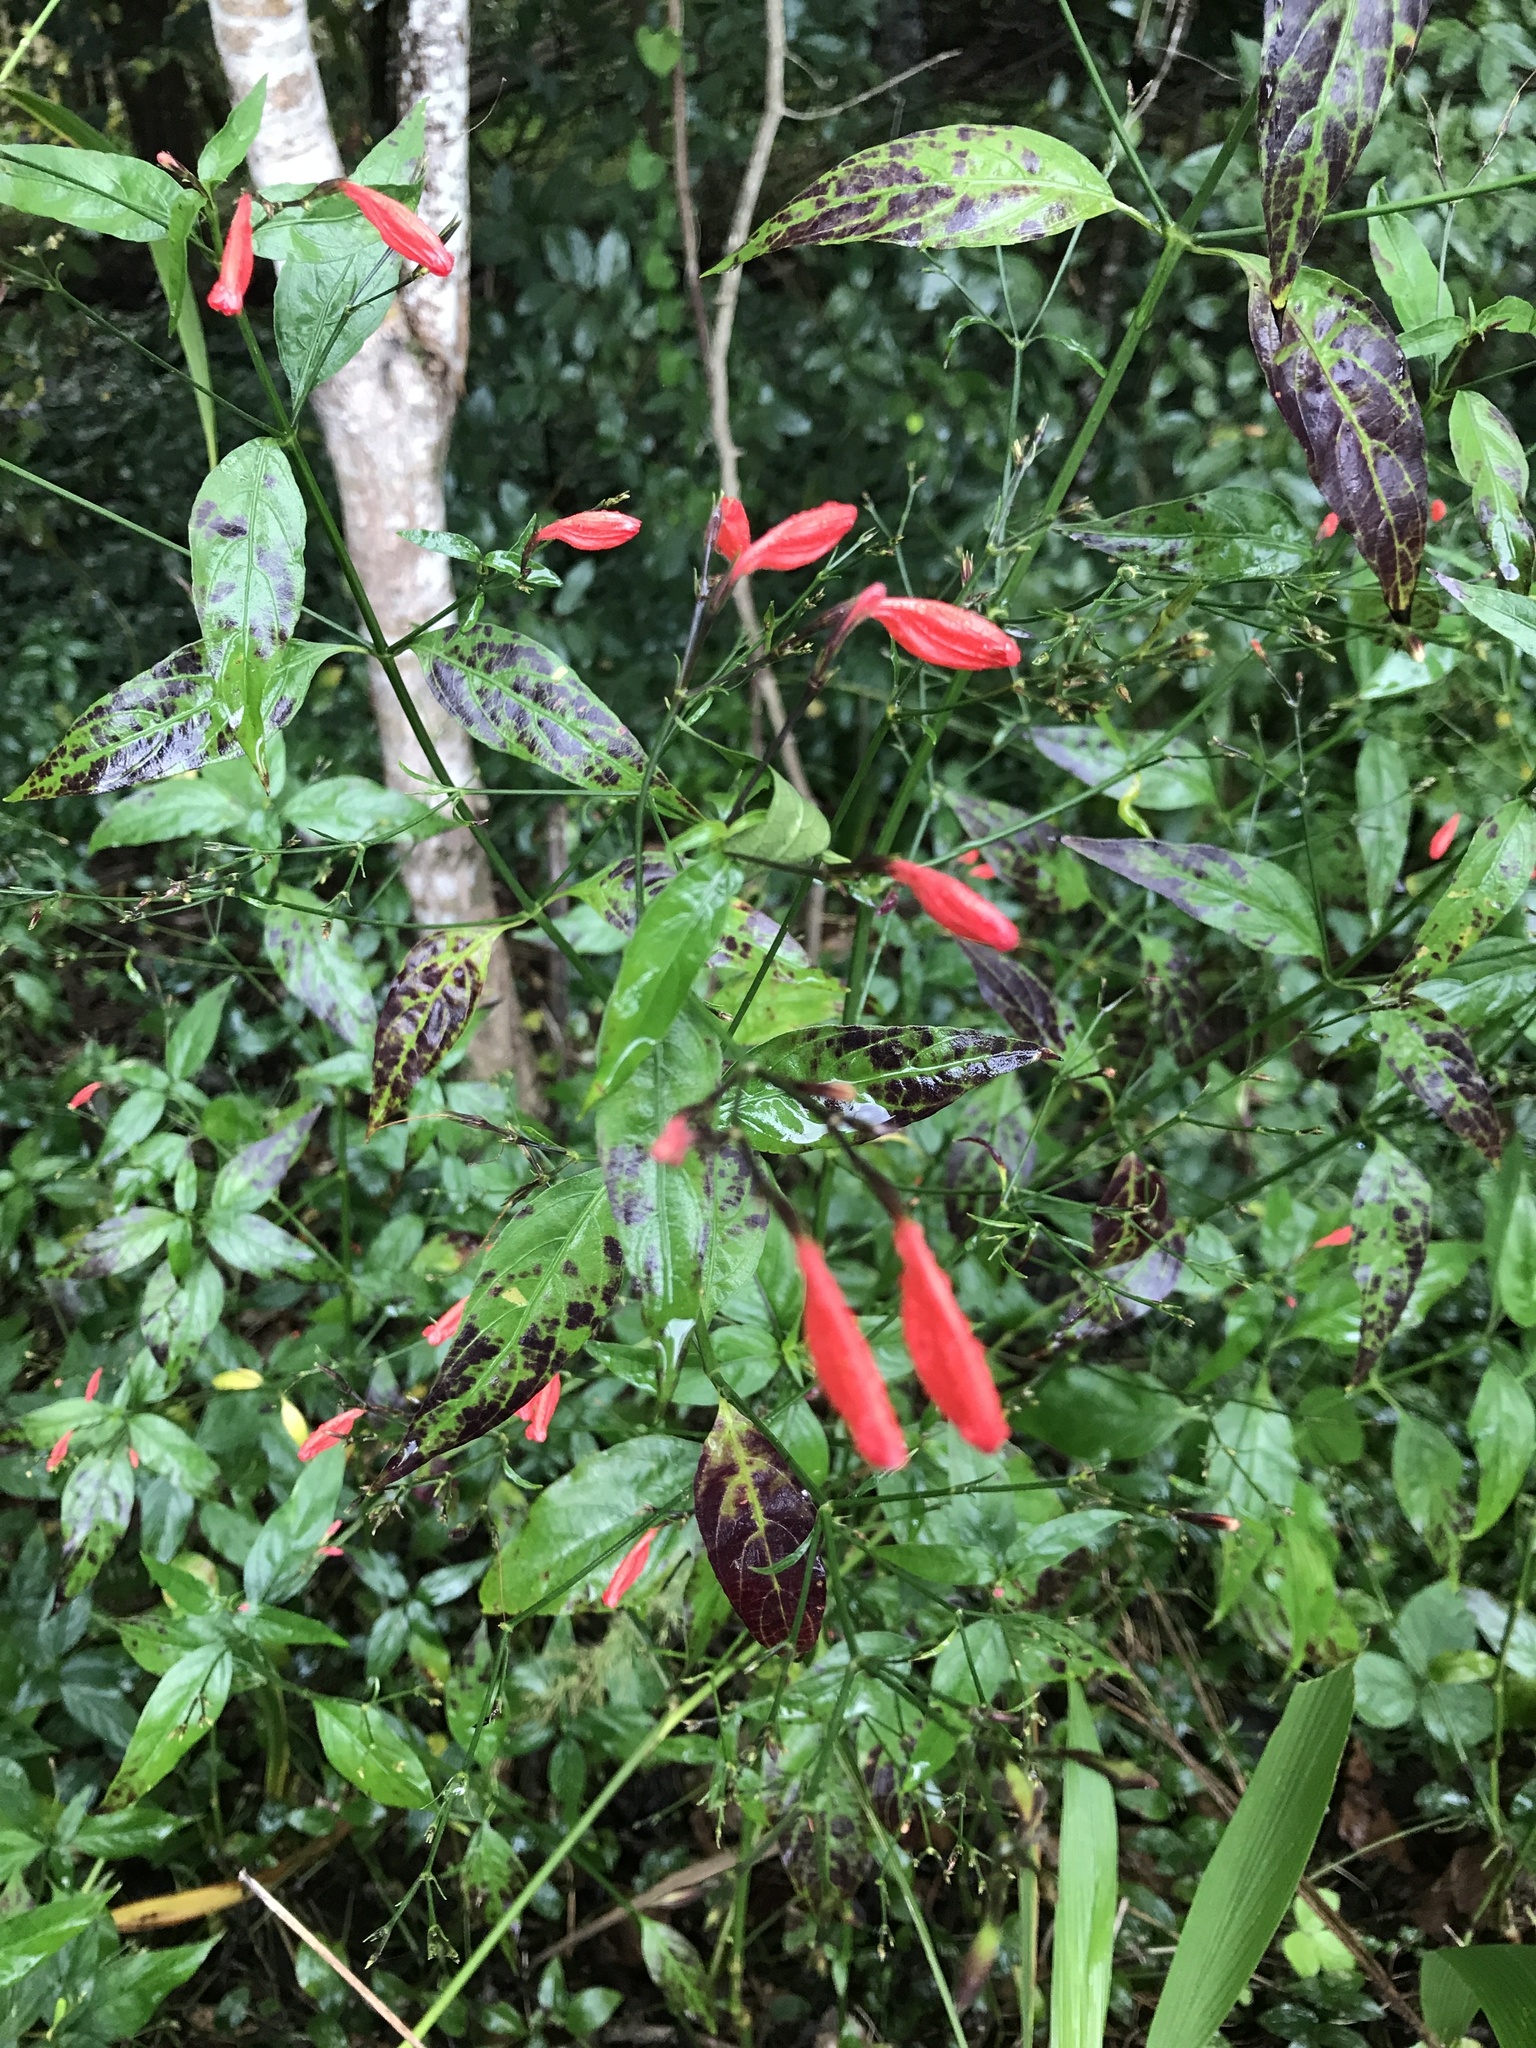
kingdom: Plantae
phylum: Tracheophyta
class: Magnoliopsida
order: Lamiales
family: Acanthaceae
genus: Ruellia
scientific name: Ruellia brevifolia
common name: Tropical wild petunia
